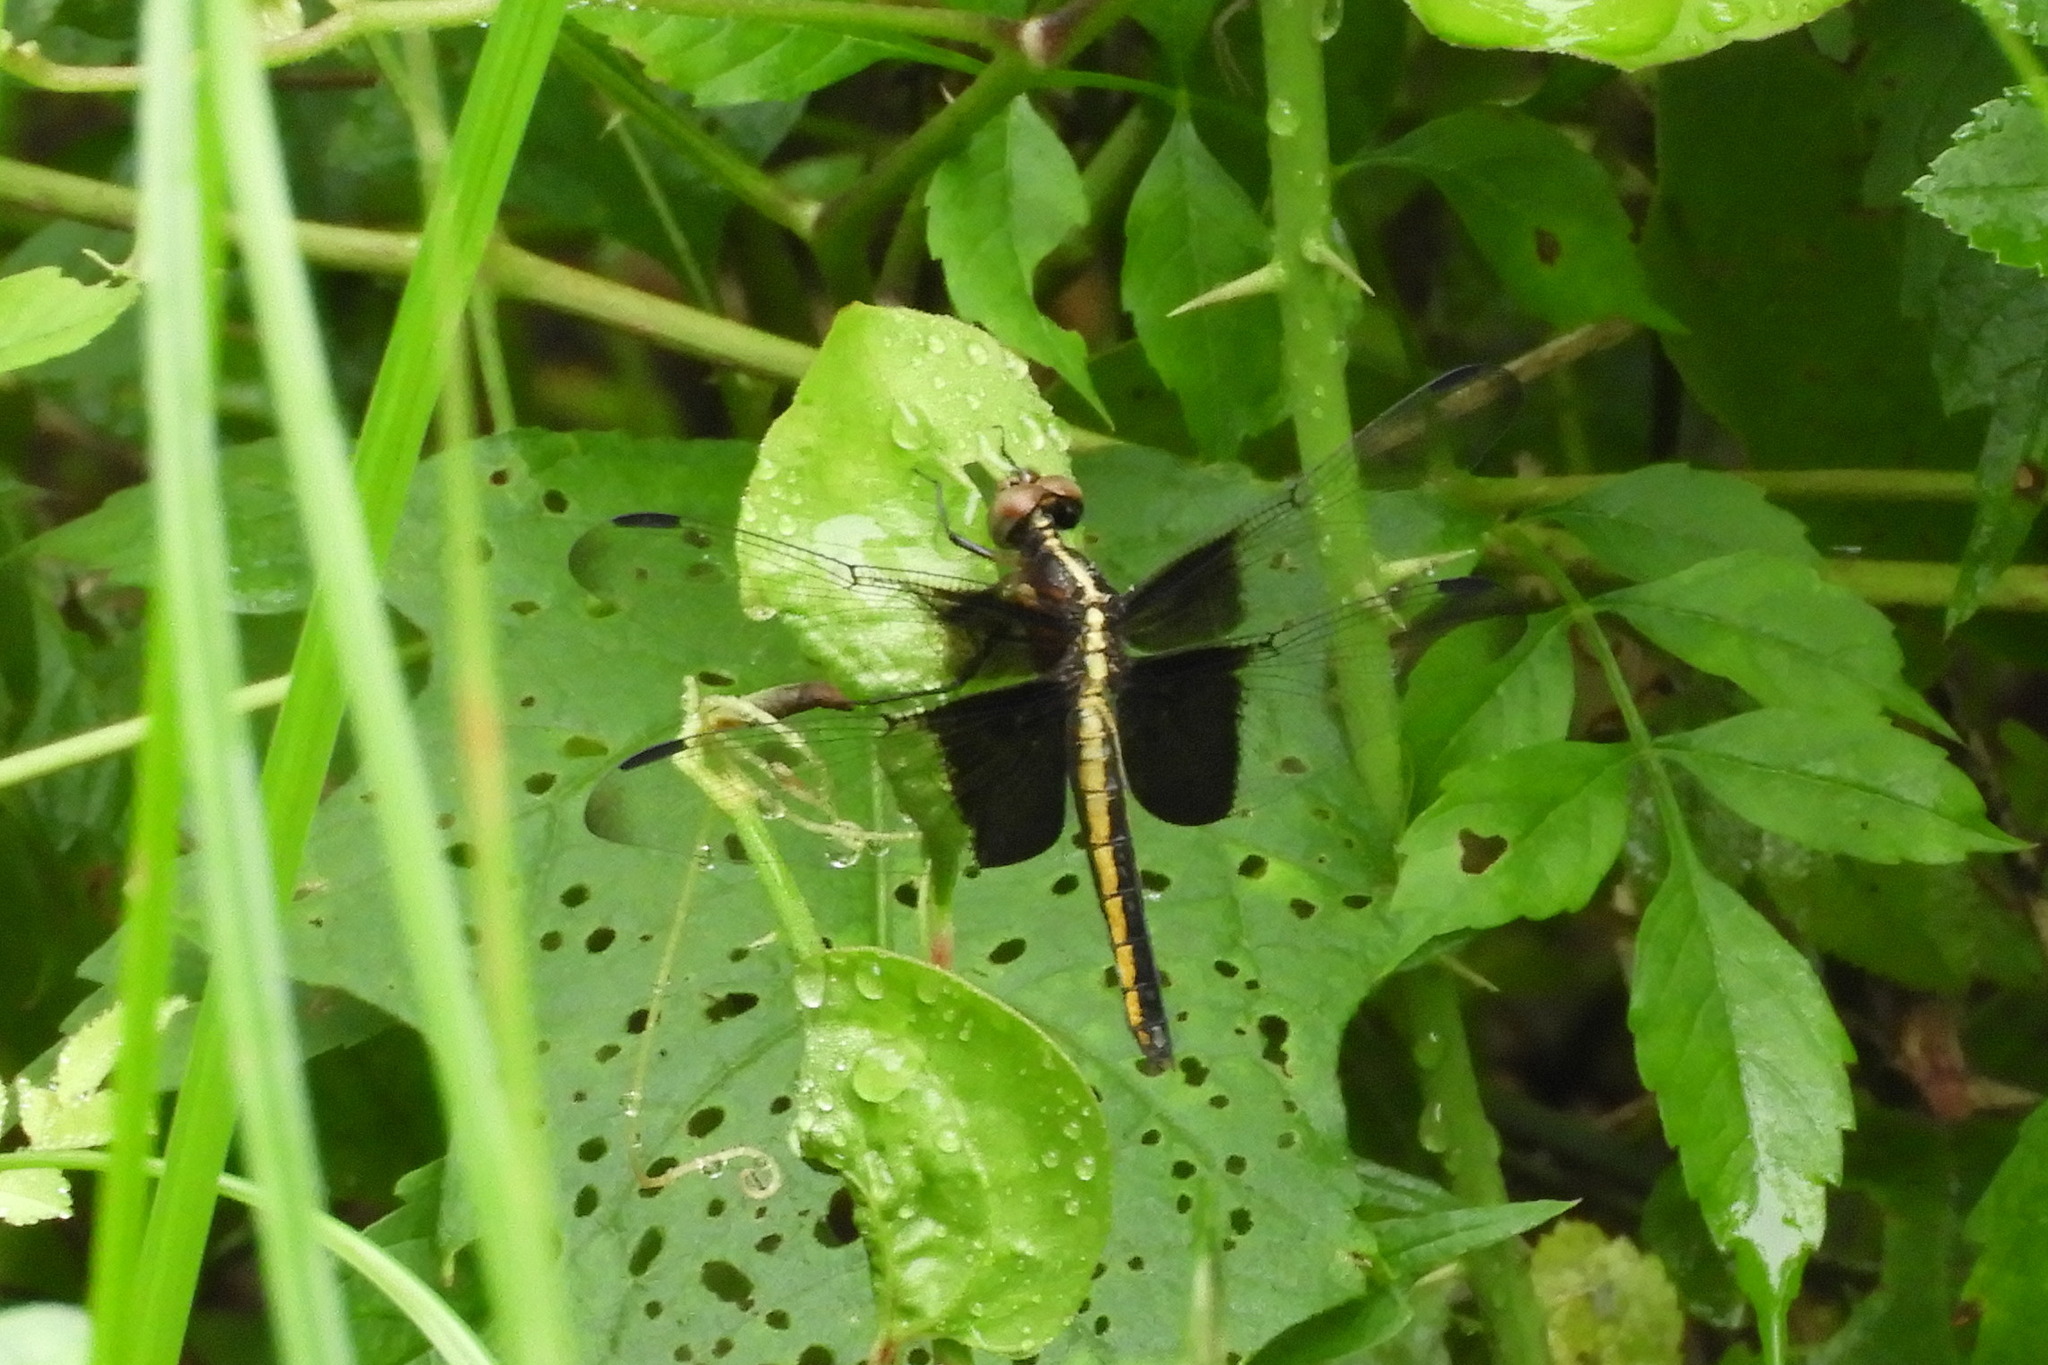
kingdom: Animalia
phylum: Arthropoda
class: Insecta
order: Odonata
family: Libellulidae
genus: Libellula
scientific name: Libellula luctuosa
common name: Widow skimmer
